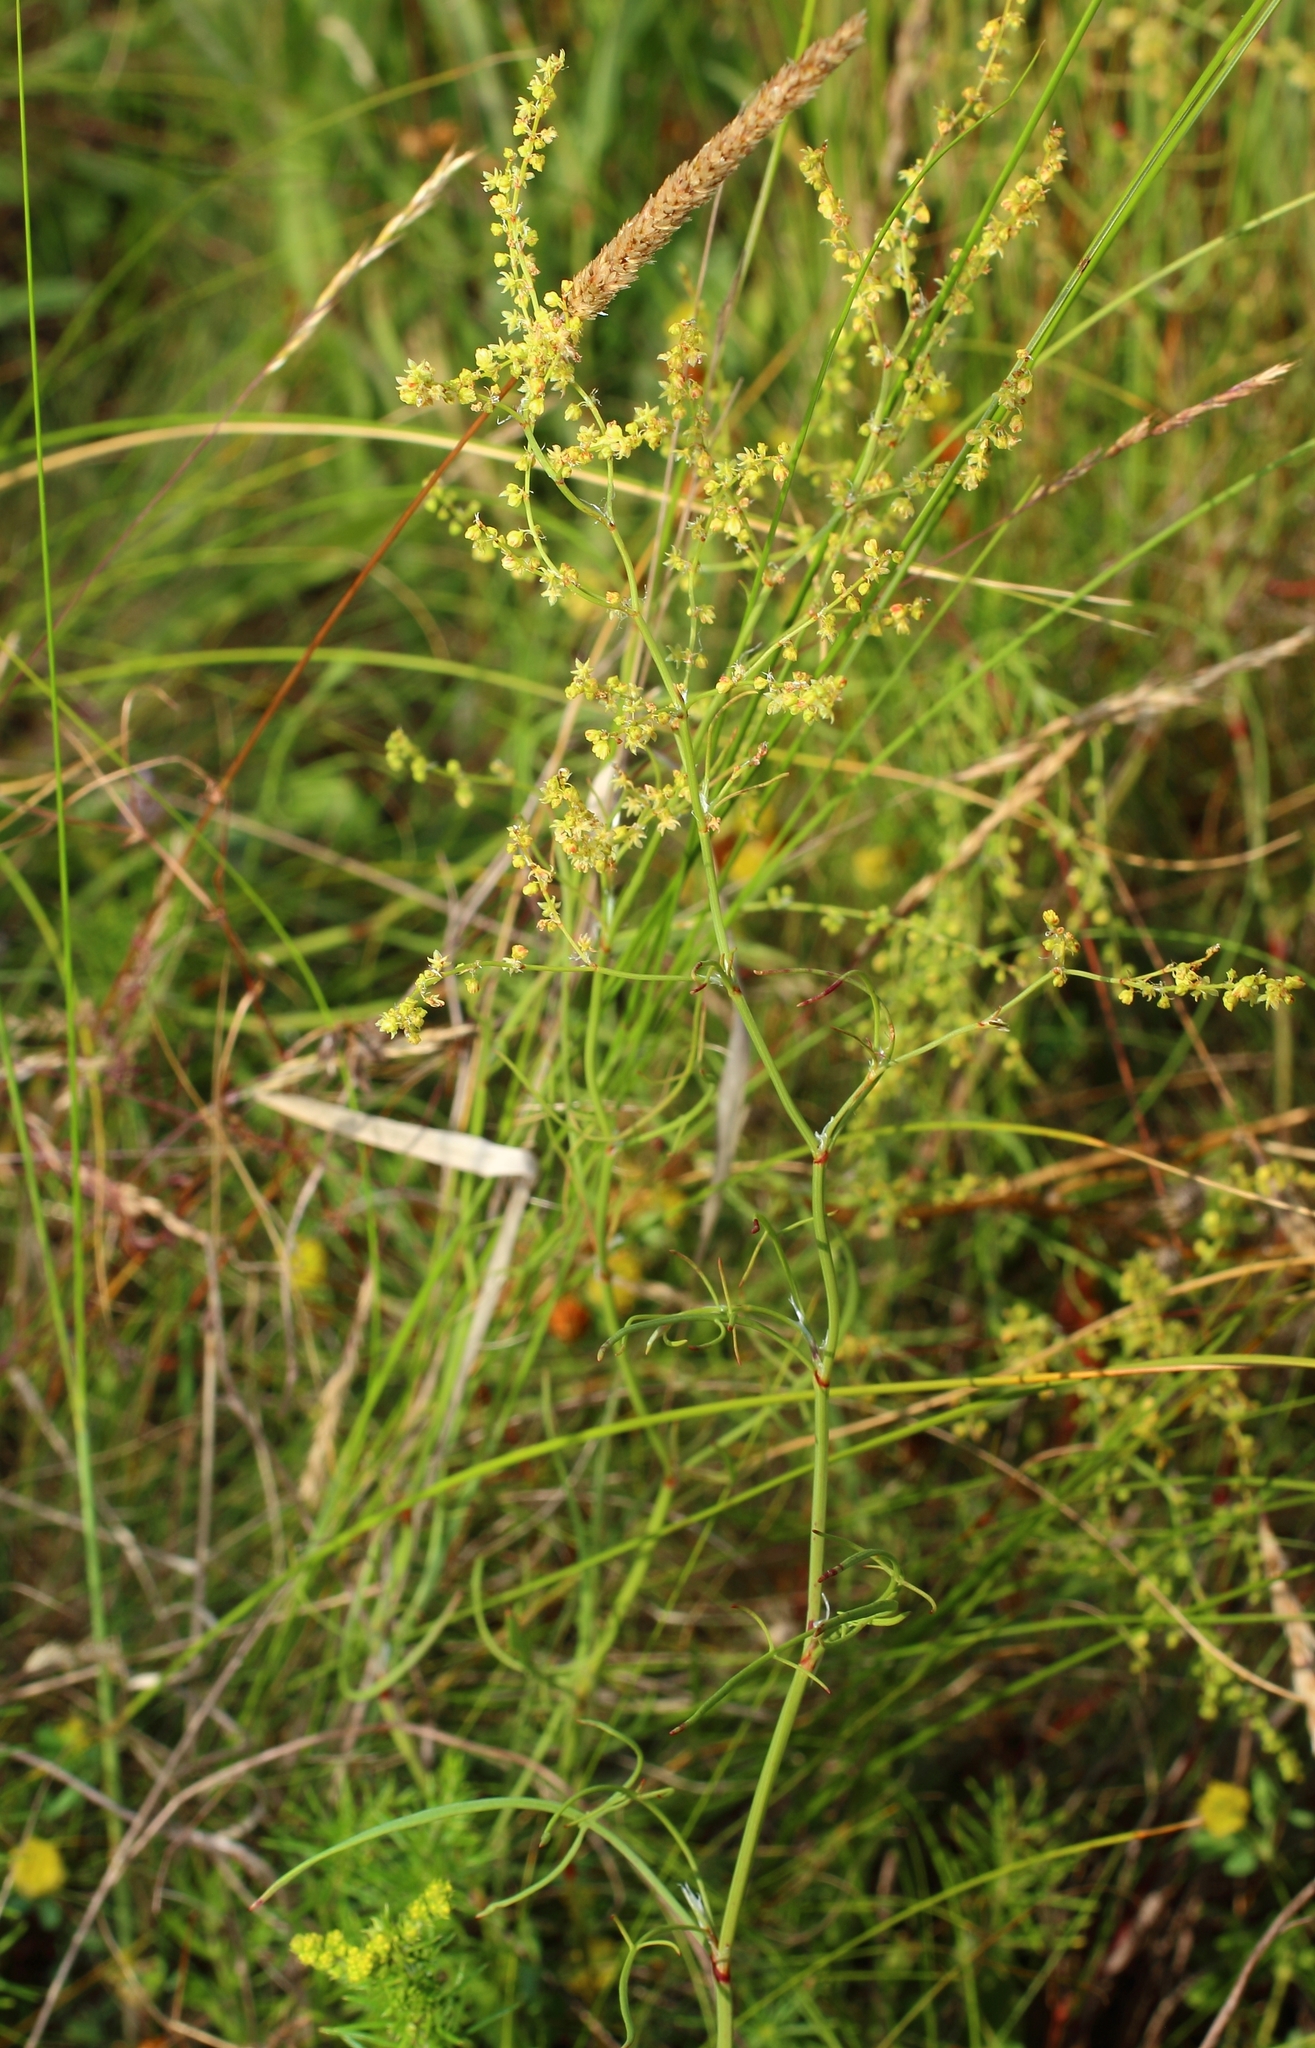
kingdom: Plantae
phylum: Tracheophyta
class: Magnoliopsida
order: Caryophyllales
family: Polygonaceae
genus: Rumex
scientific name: Rumex acetosella
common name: Common sheep sorrel
